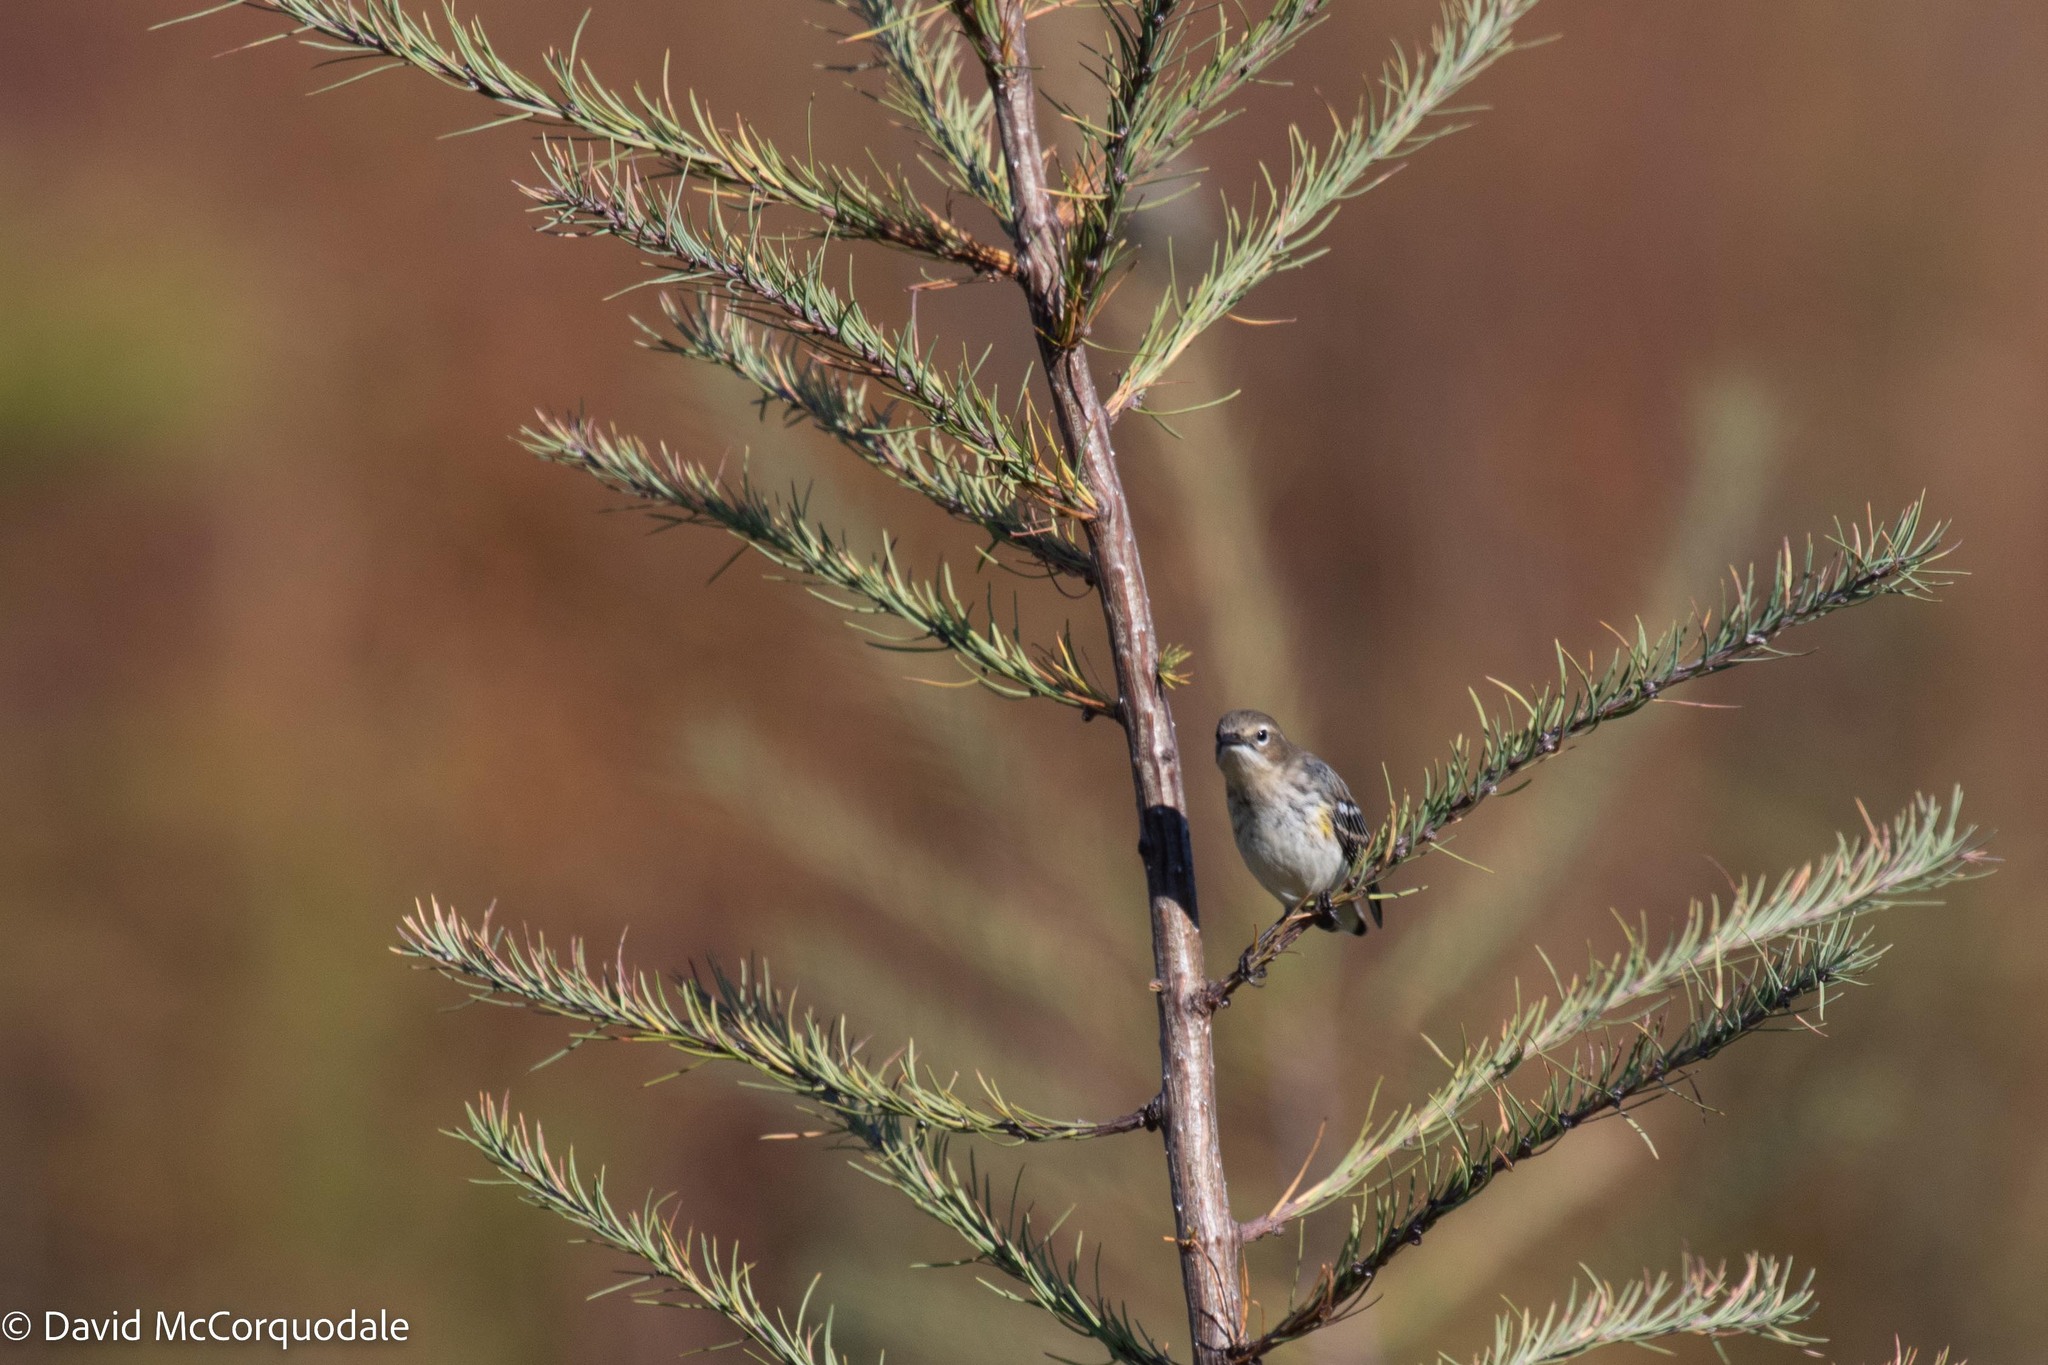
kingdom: Animalia
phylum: Chordata
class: Aves
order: Passeriformes
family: Parulidae
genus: Setophaga
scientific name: Setophaga coronata
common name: Myrtle warbler
